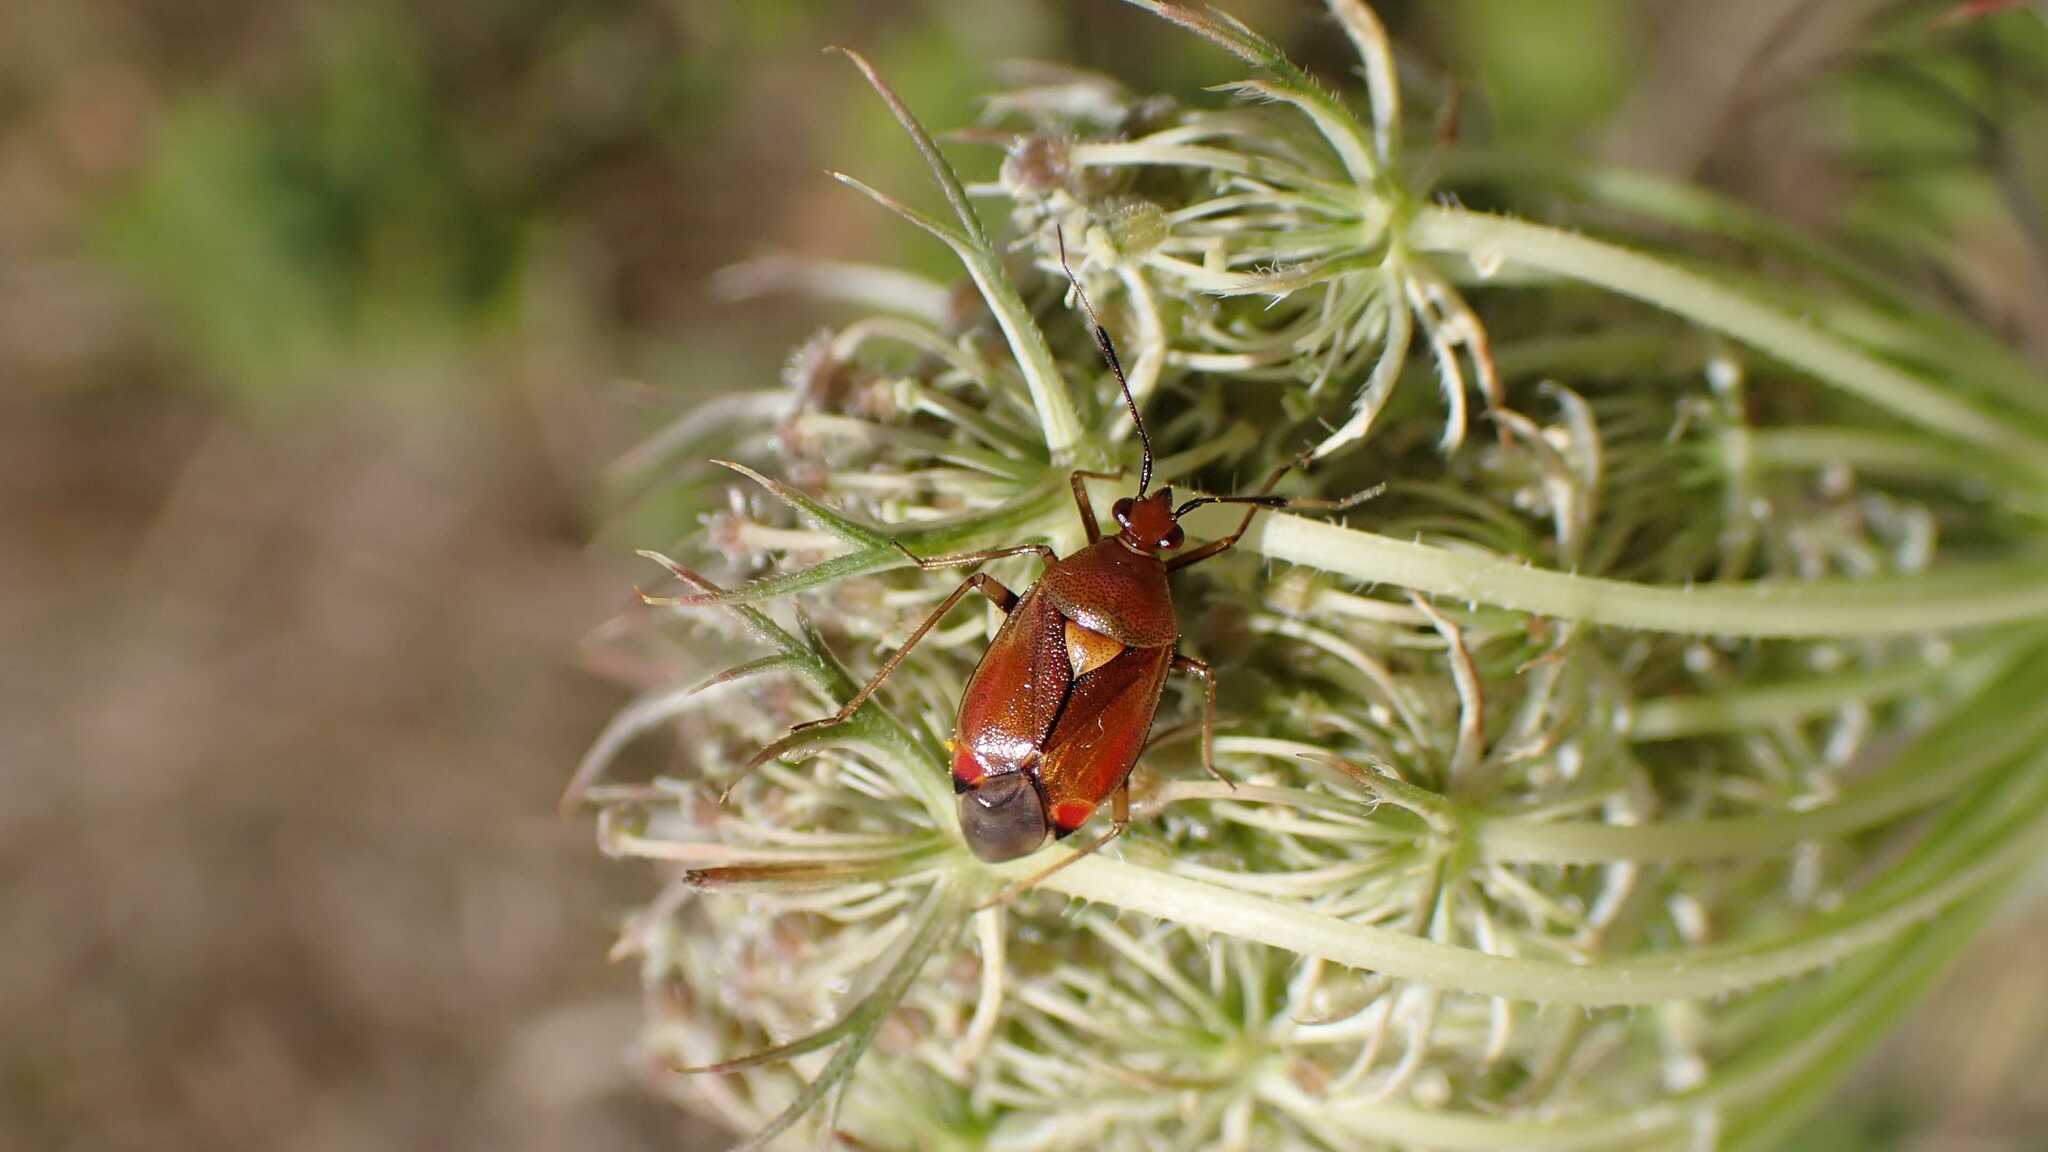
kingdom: Animalia
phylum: Arthropoda
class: Insecta
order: Hemiptera
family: Miridae
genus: Deraeocoris
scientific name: Deraeocoris ruber
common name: Plant bug
